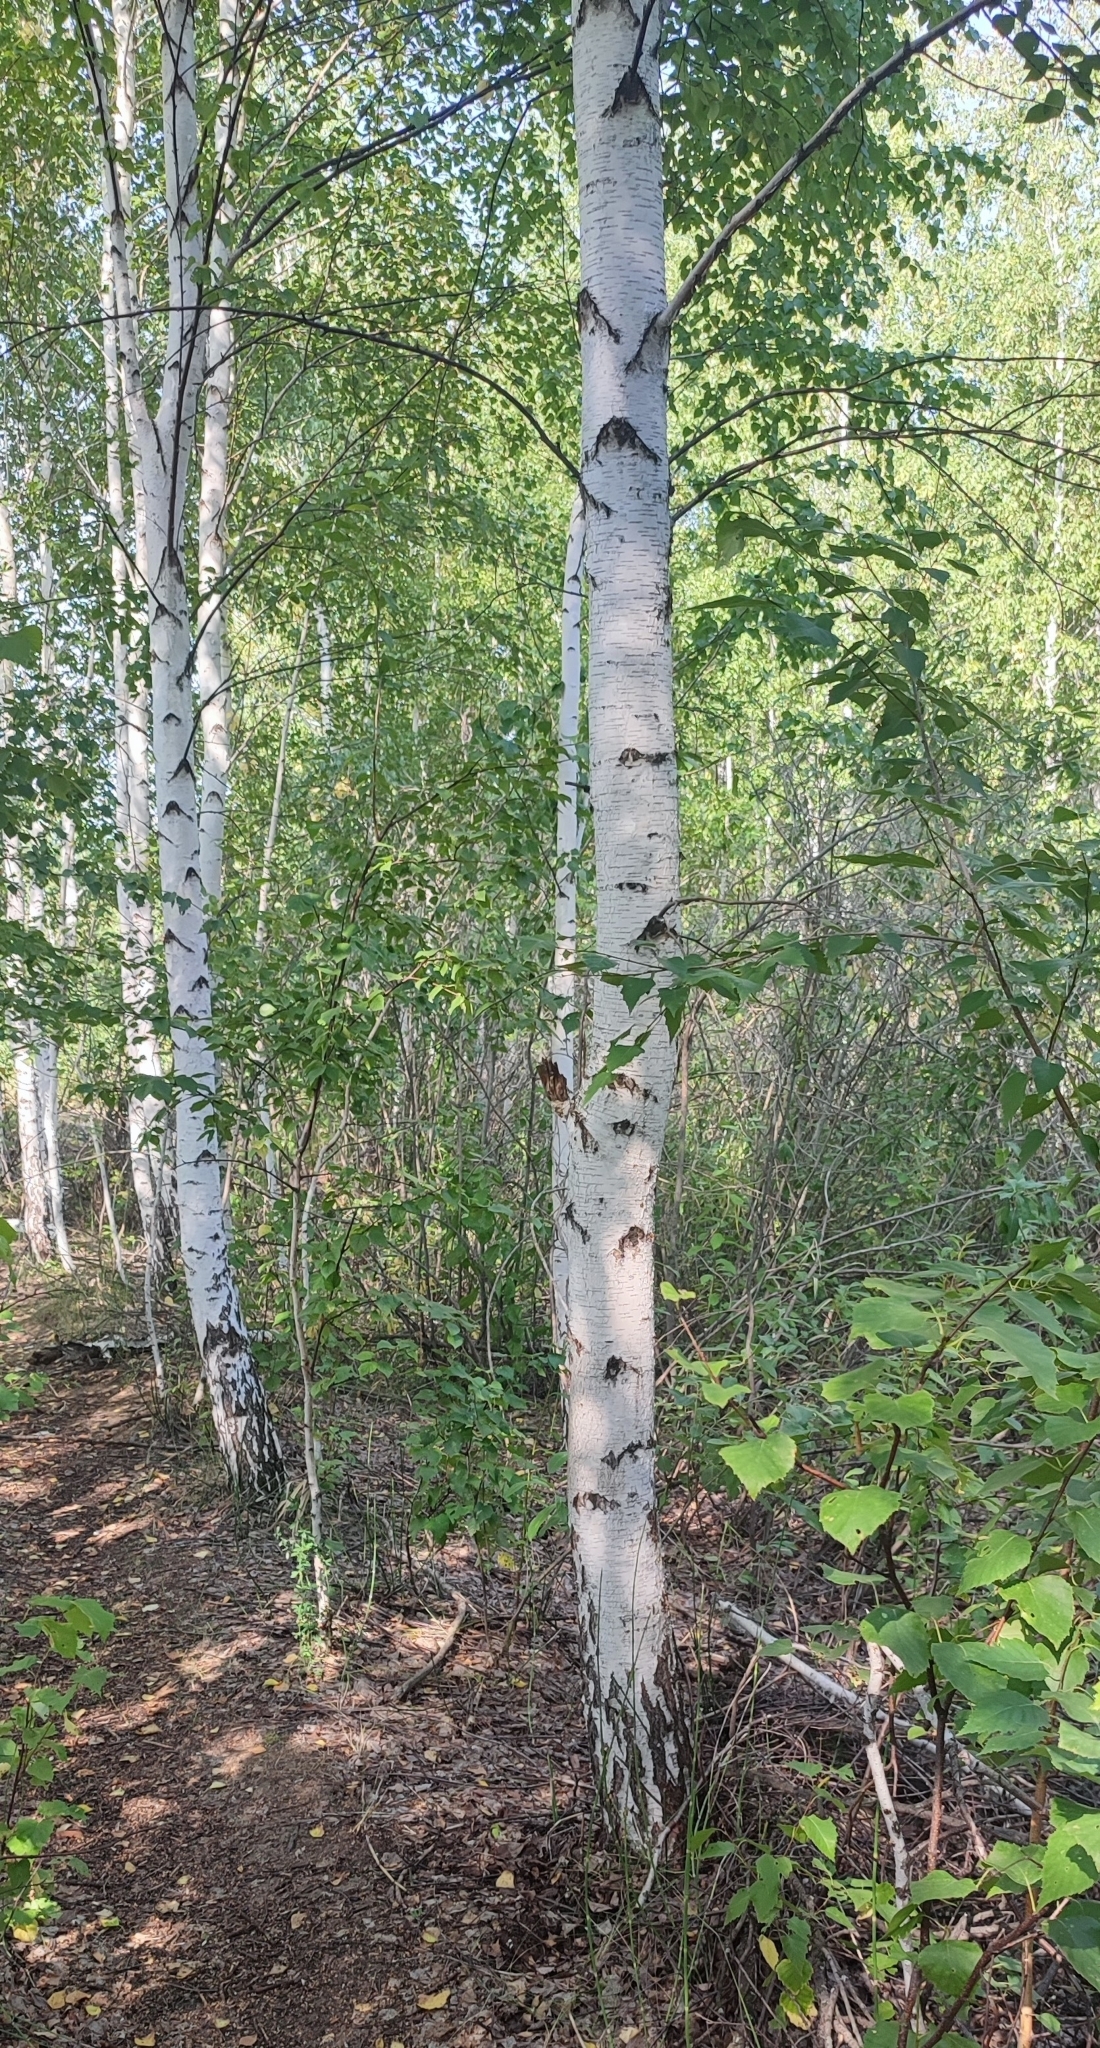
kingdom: Plantae
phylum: Tracheophyta
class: Magnoliopsida
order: Fagales
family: Betulaceae
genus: Betula
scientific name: Betula pendula
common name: Silver birch
